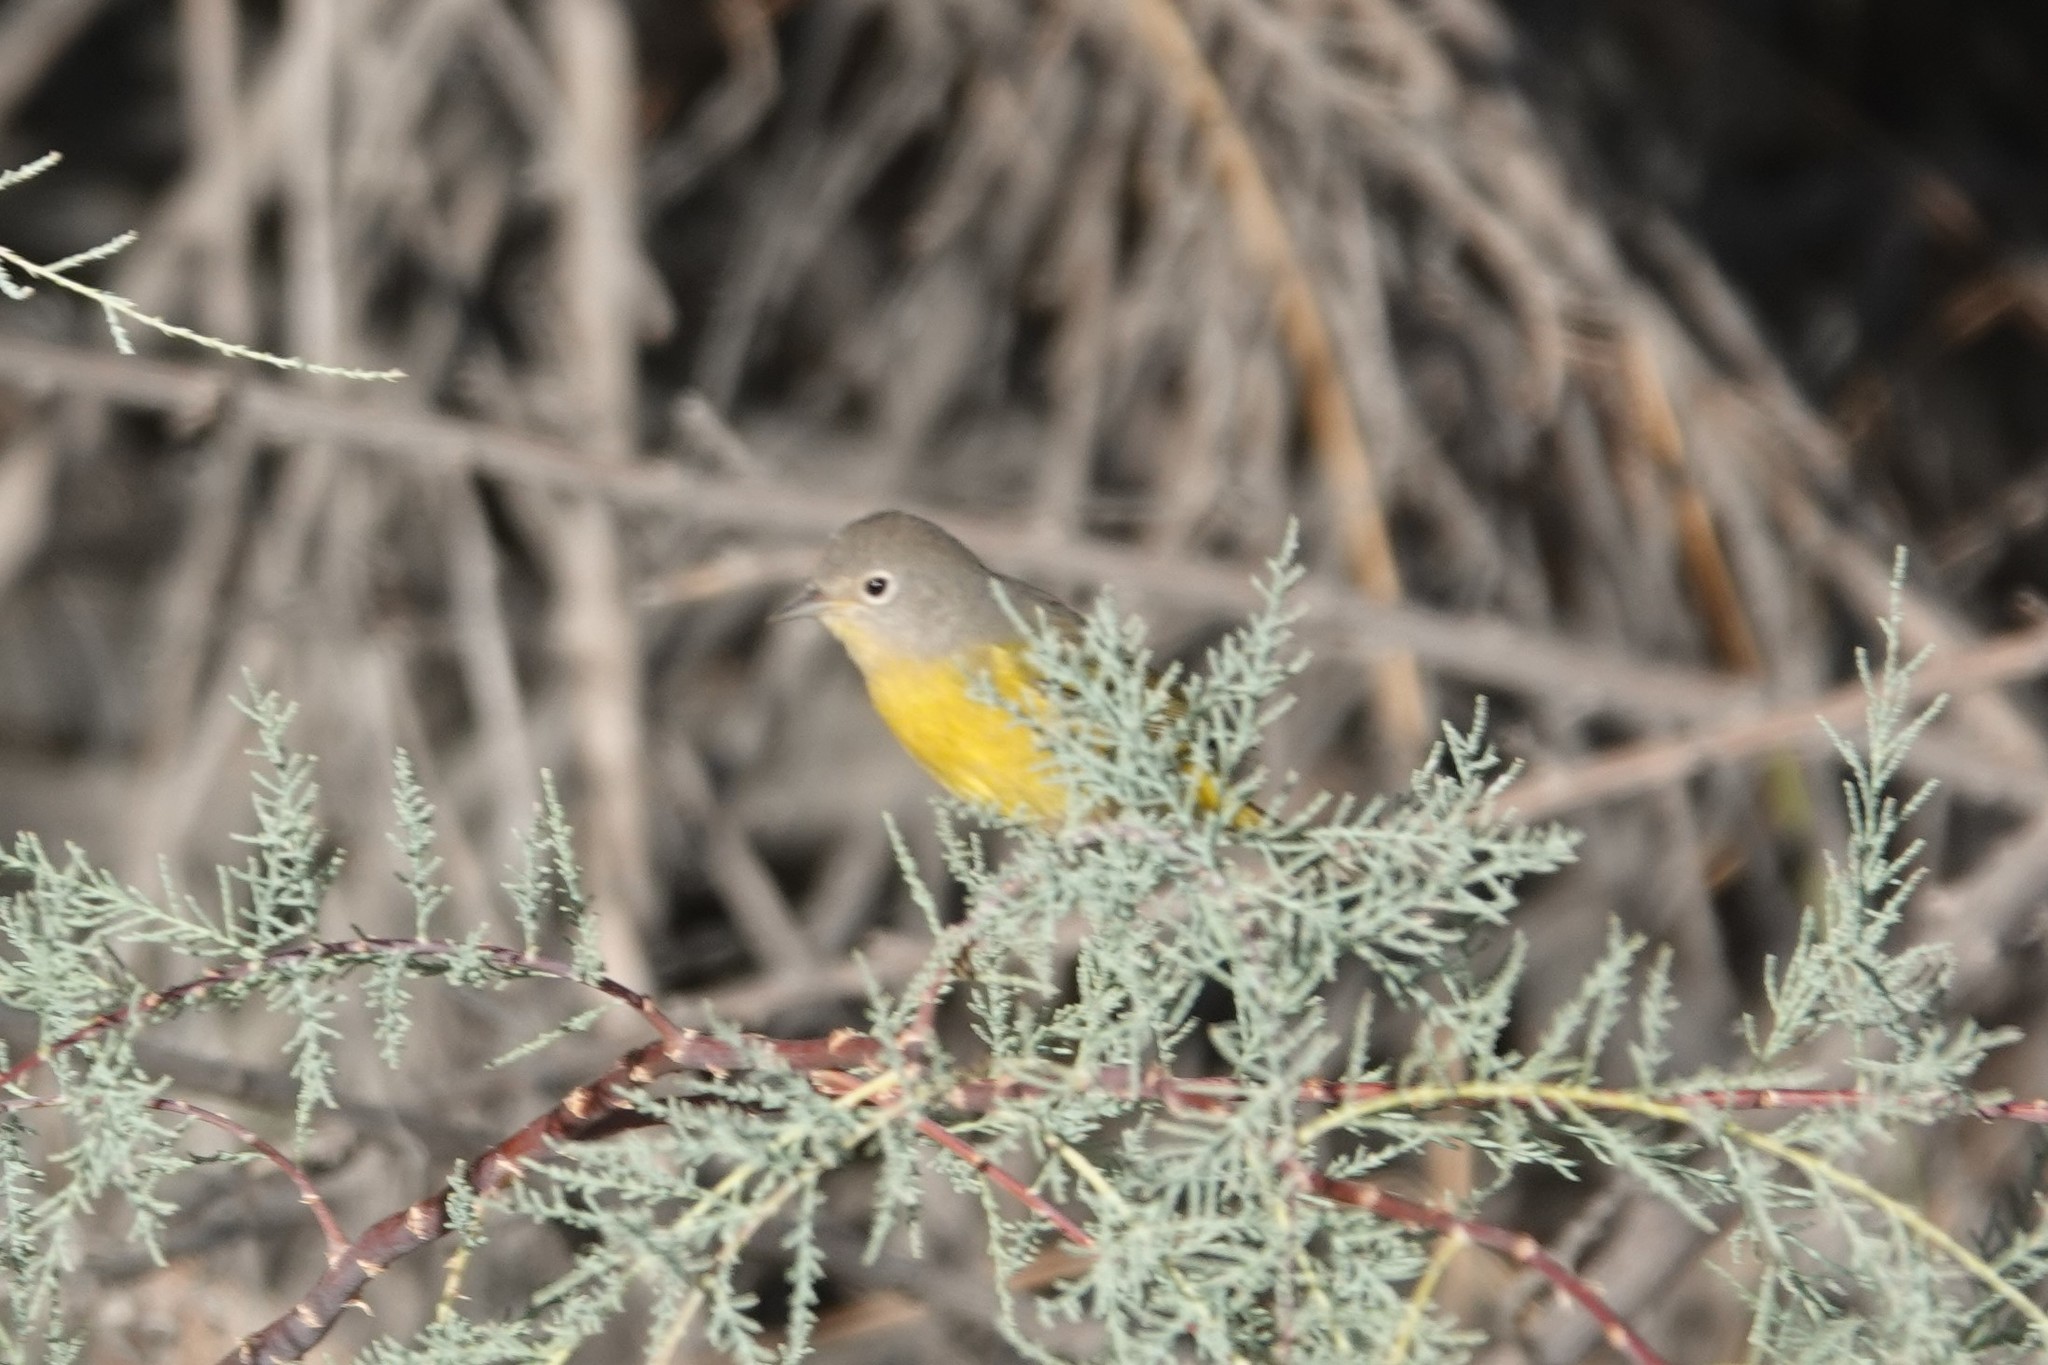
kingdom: Animalia
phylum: Chordata
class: Aves
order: Passeriformes
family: Parulidae
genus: Leiothlypis
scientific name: Leiothlypis ruficapilla
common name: Nashville warbler
